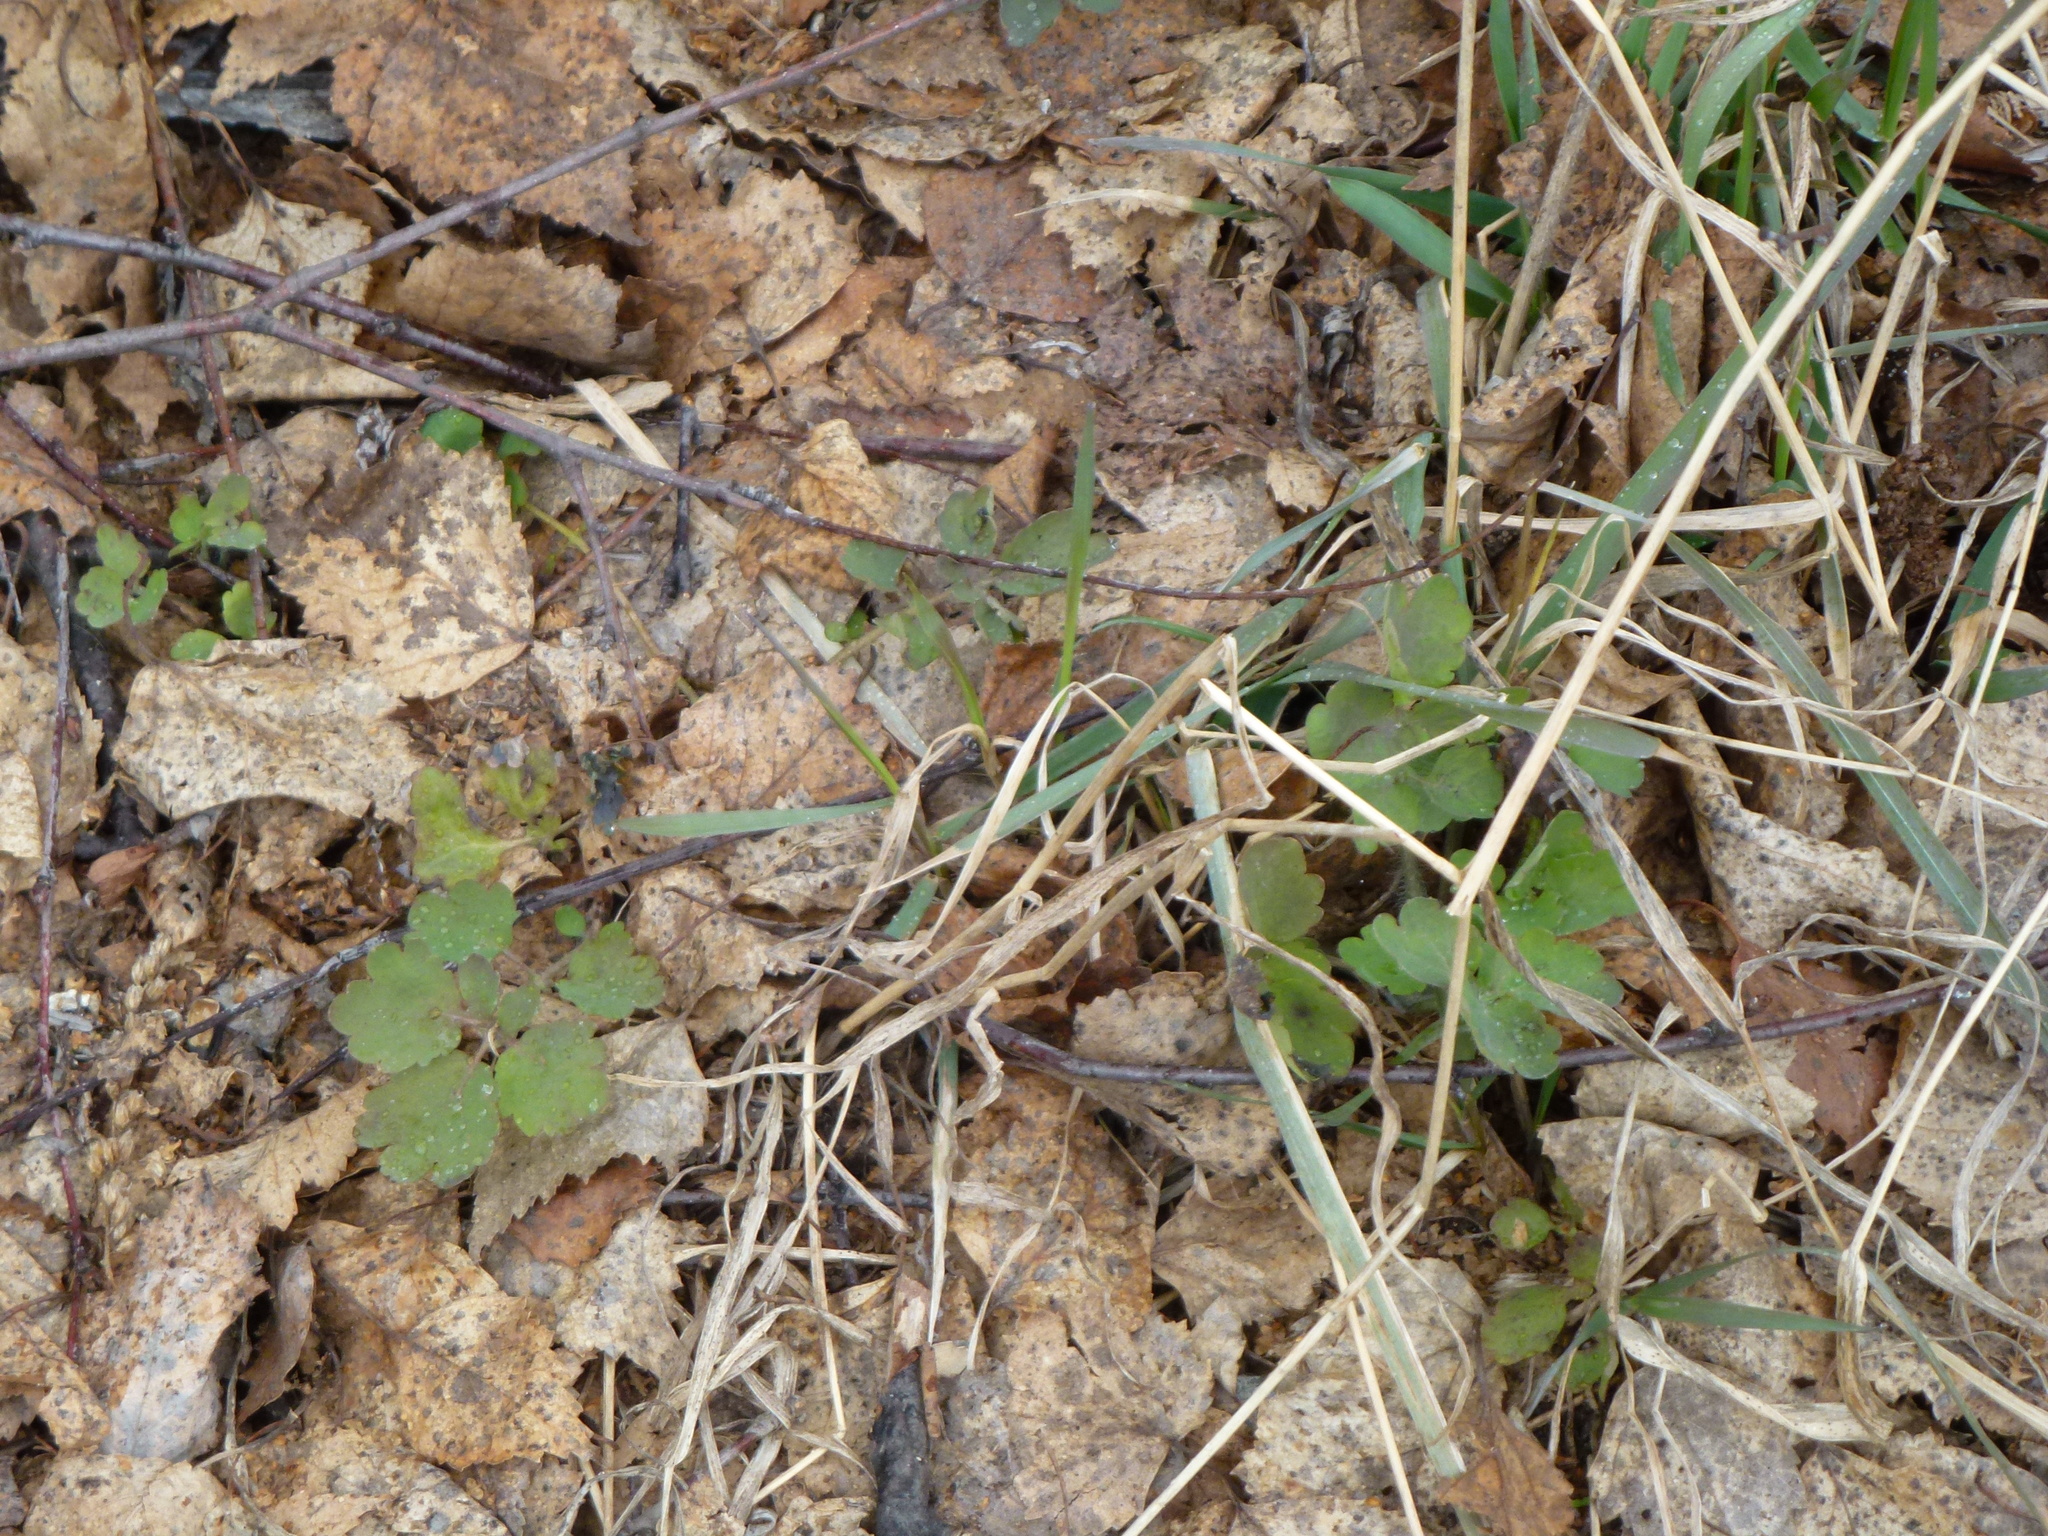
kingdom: Plantae
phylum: Tracheophyta
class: Magnoliopsida
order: Ranunculales
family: Papaveraceae
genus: Chelidonium
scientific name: Chelidonium majus
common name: Greater celandine
